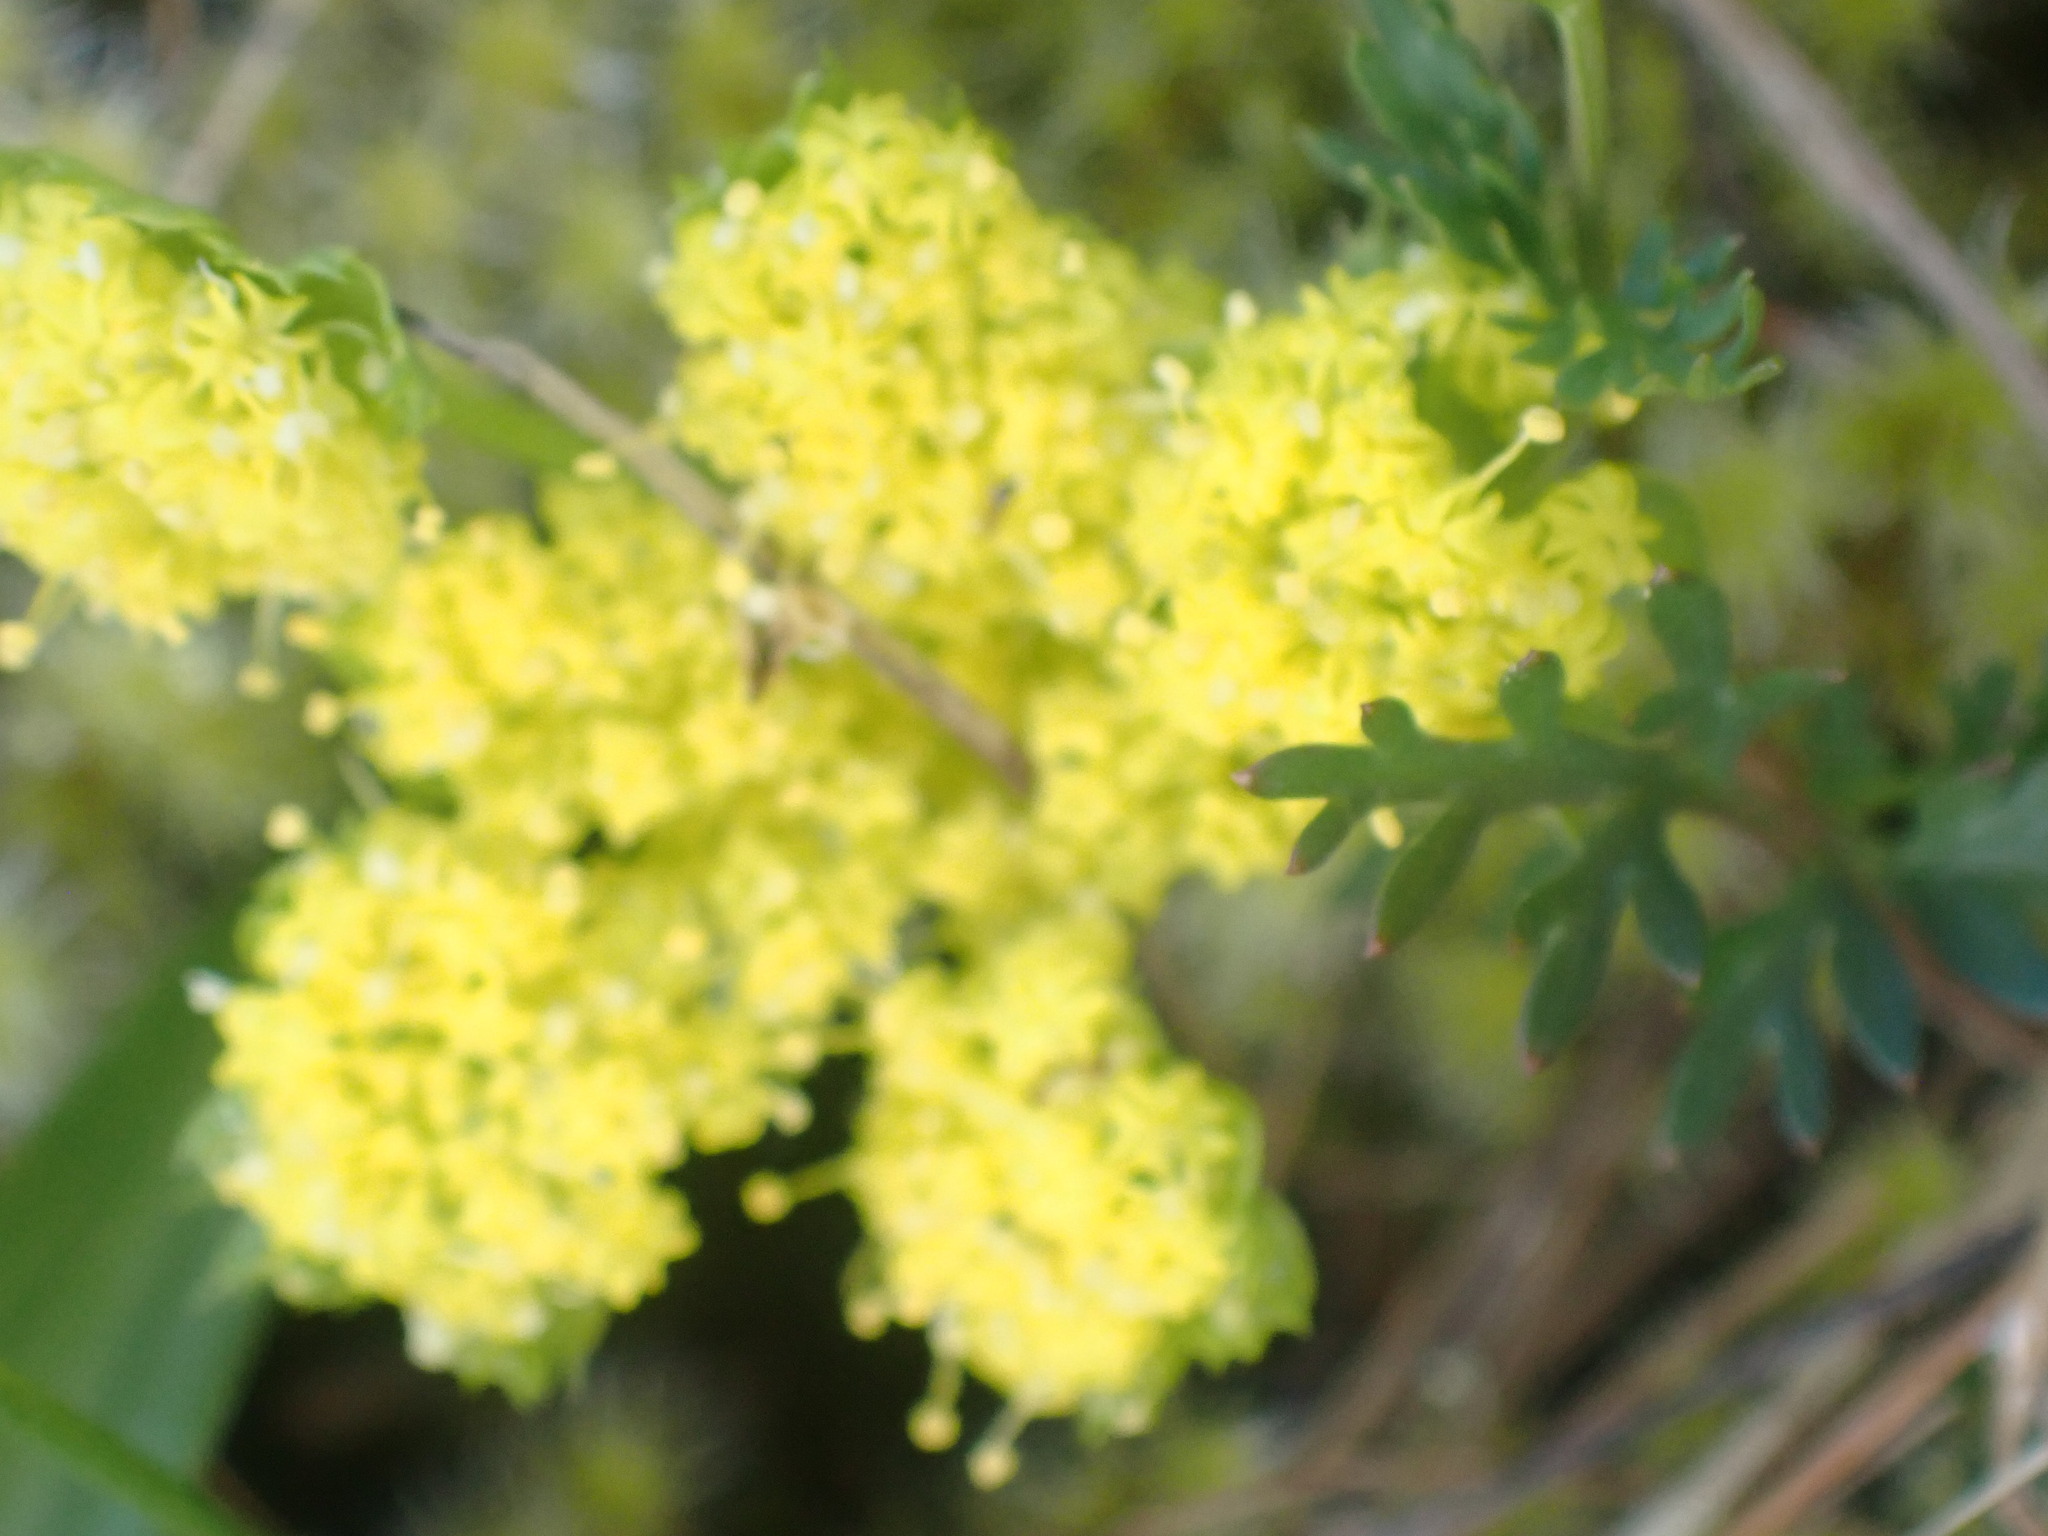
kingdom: Plantae
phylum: Tracheophyta
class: Magnoliopsida
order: Apiales
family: Apiaceae
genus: Lomatium
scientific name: Lomatium utriculatum
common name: Fine-leaf desert-parsley
